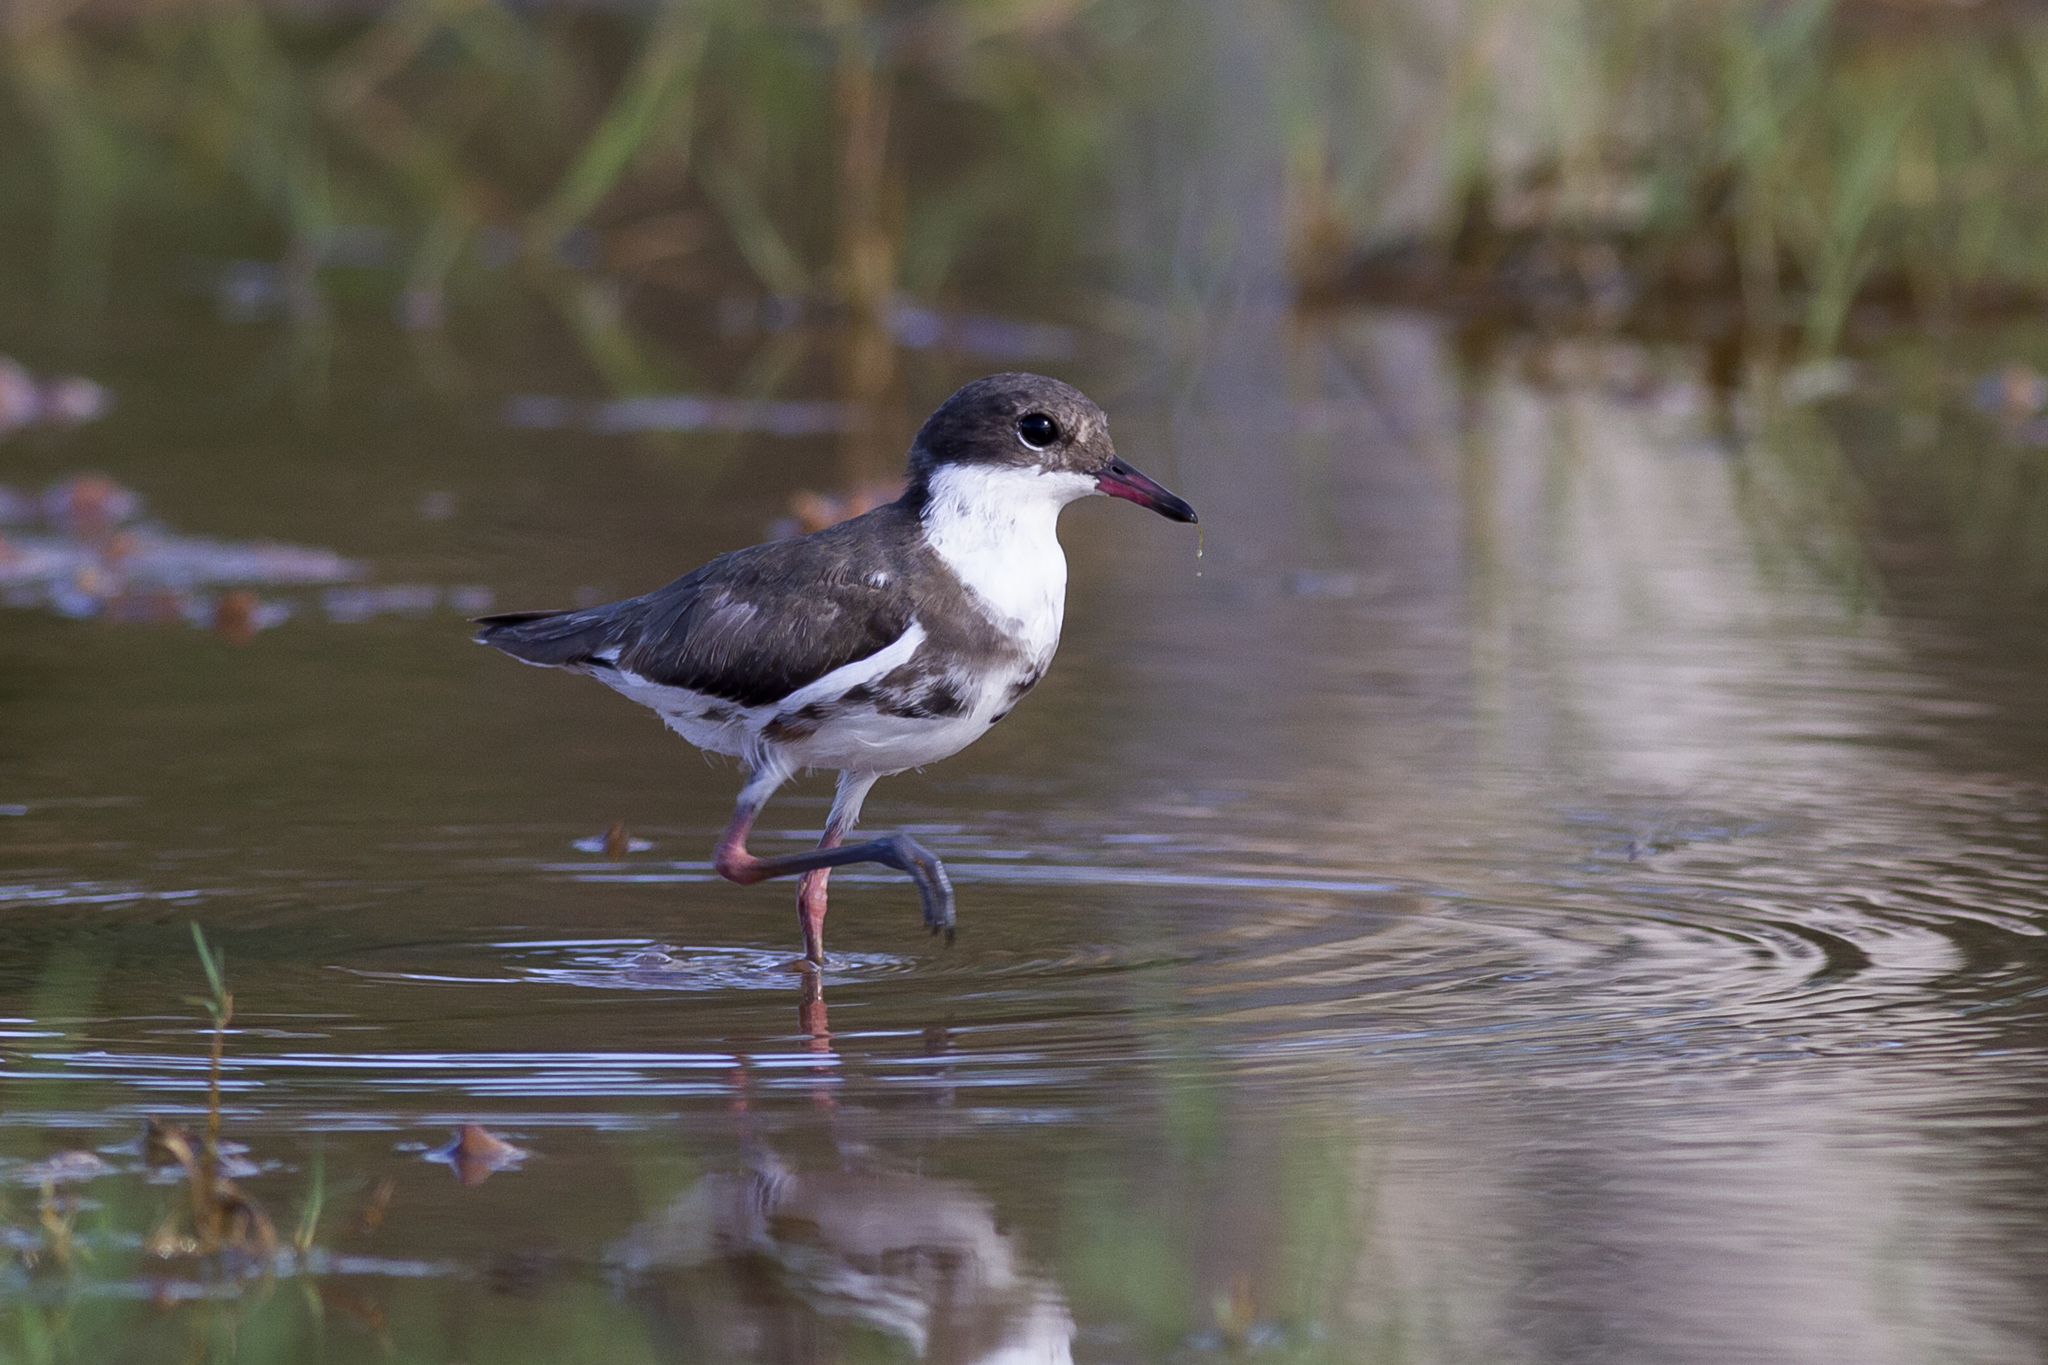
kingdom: Animalia
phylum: Chordata
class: Aves
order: Charadriiformes
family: Charadriidae
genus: Erythrogonys
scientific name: Erythrogonys cinctus
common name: Red-kneed dotterel
